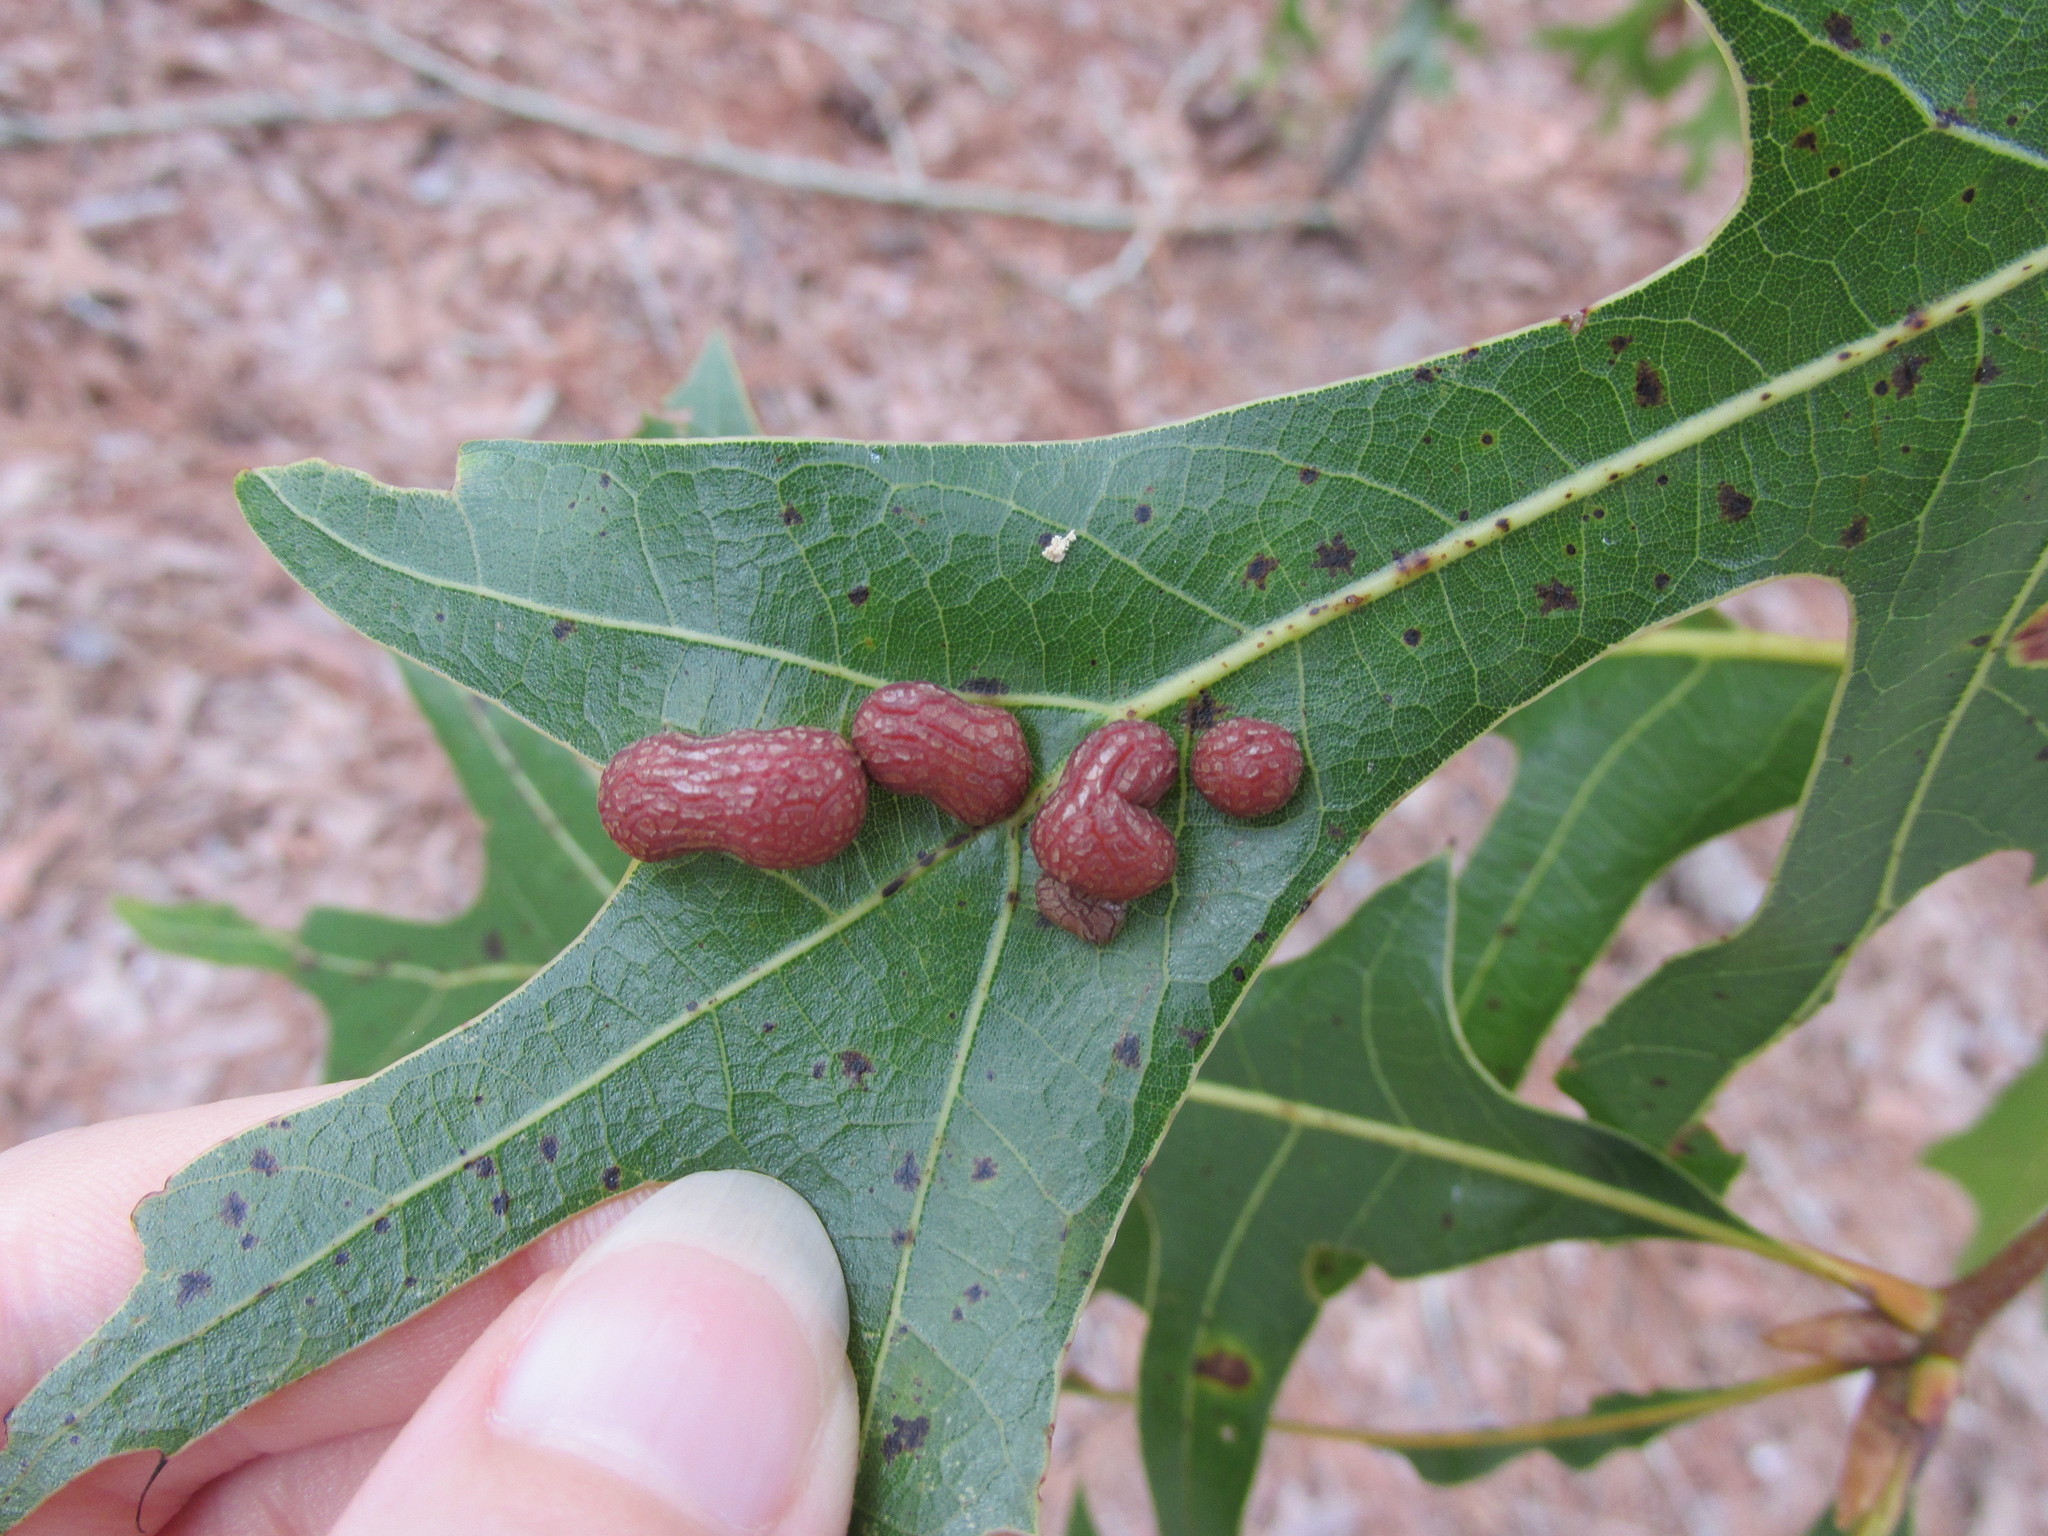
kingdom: Animalia
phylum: Arthropoda
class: Insecta
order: Diptera
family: Cecidomyiidae
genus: Polystepha
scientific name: Polystepha pilulae
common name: Oak leaf gall midge
